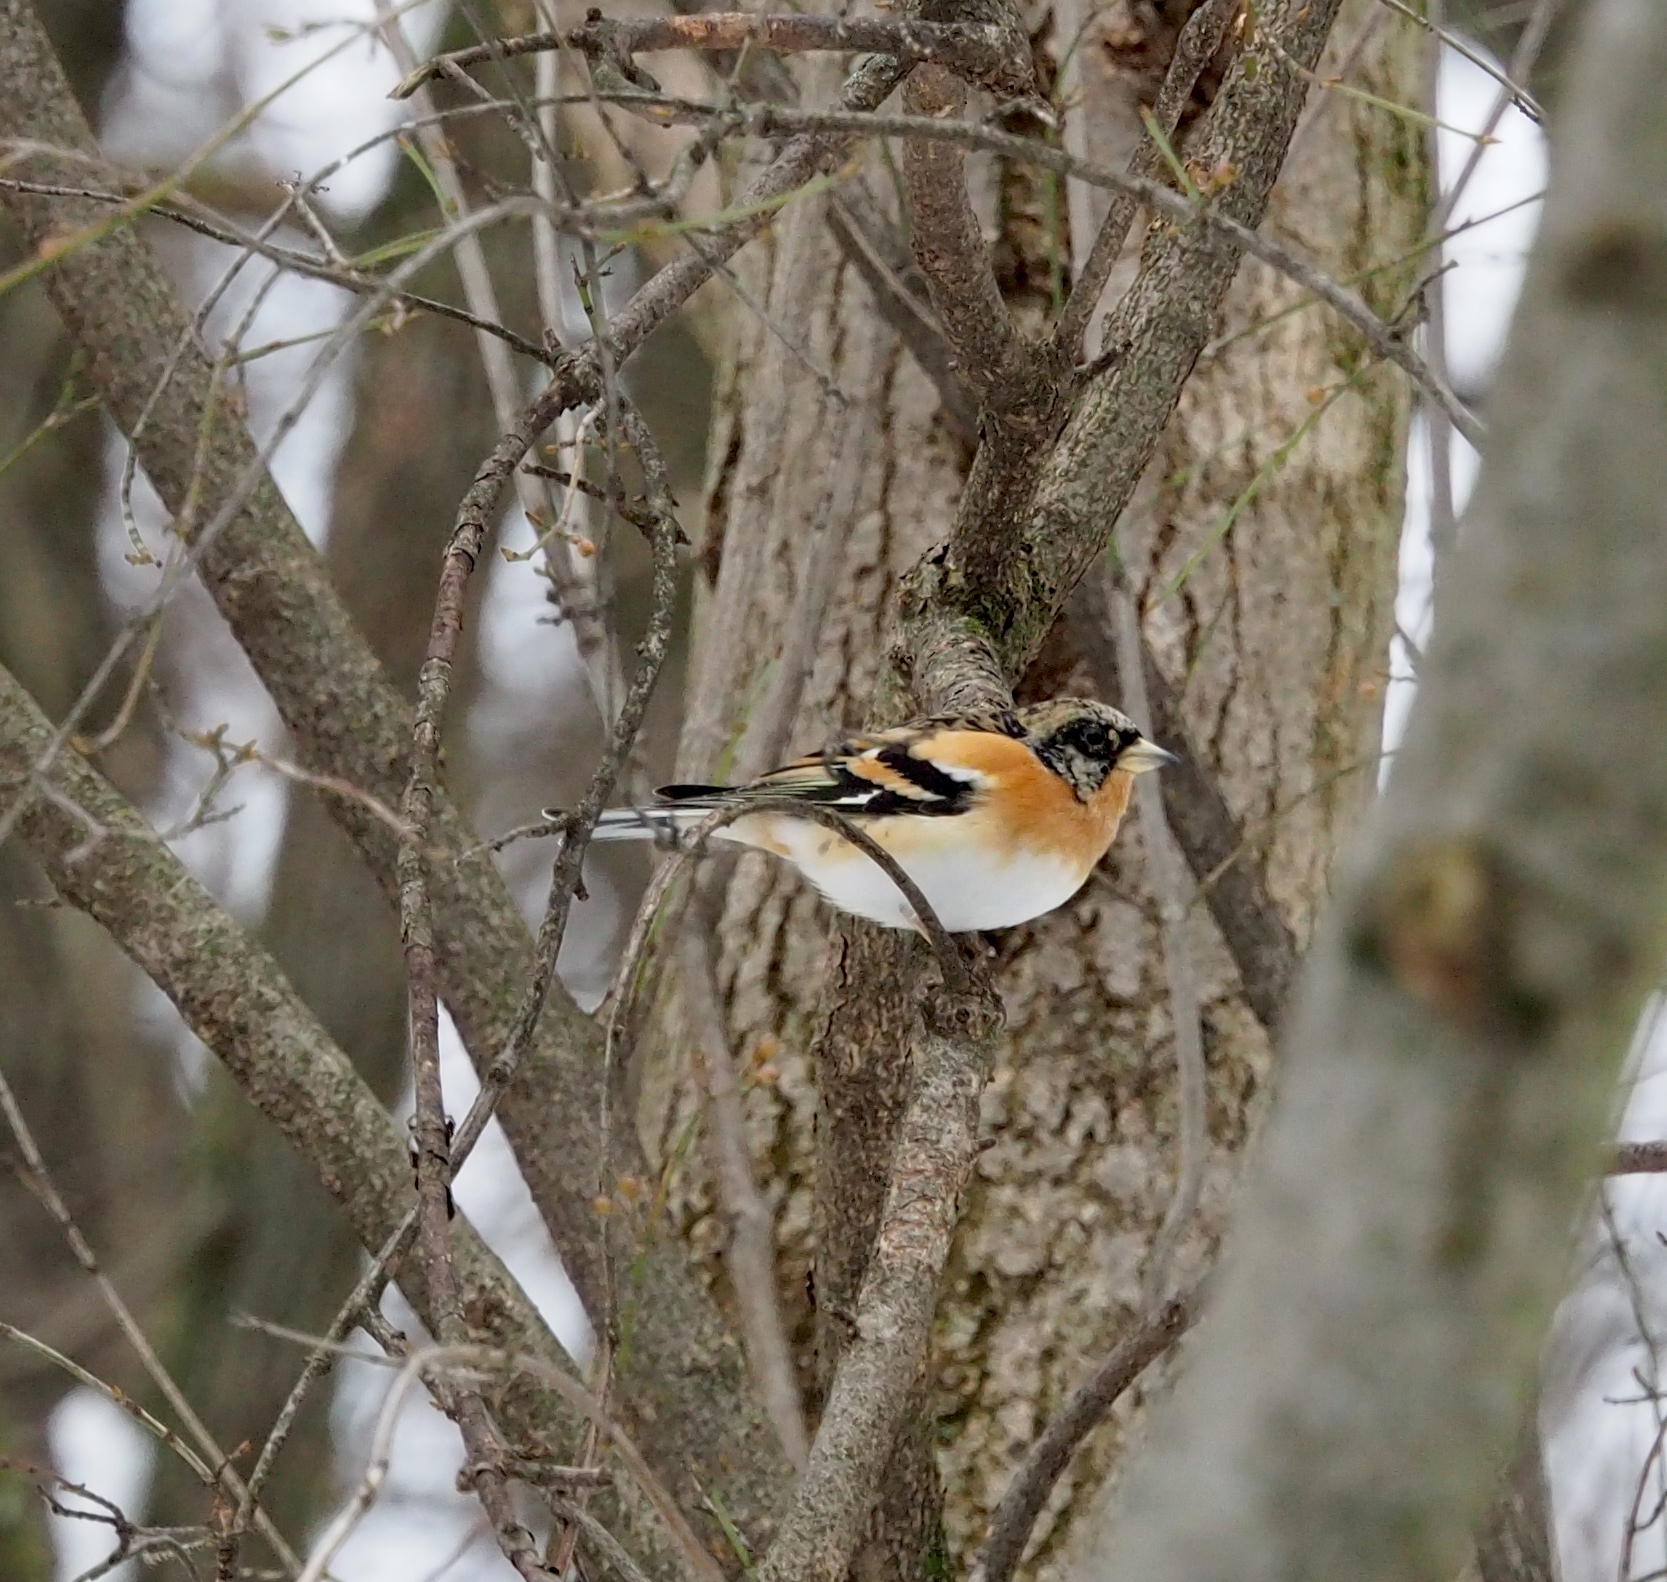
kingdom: Animalia
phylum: Chordata
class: Aves
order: Passeriformes
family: Fringillidae
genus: Fringilla
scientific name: Fringilla montifringilla
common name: Brambling
